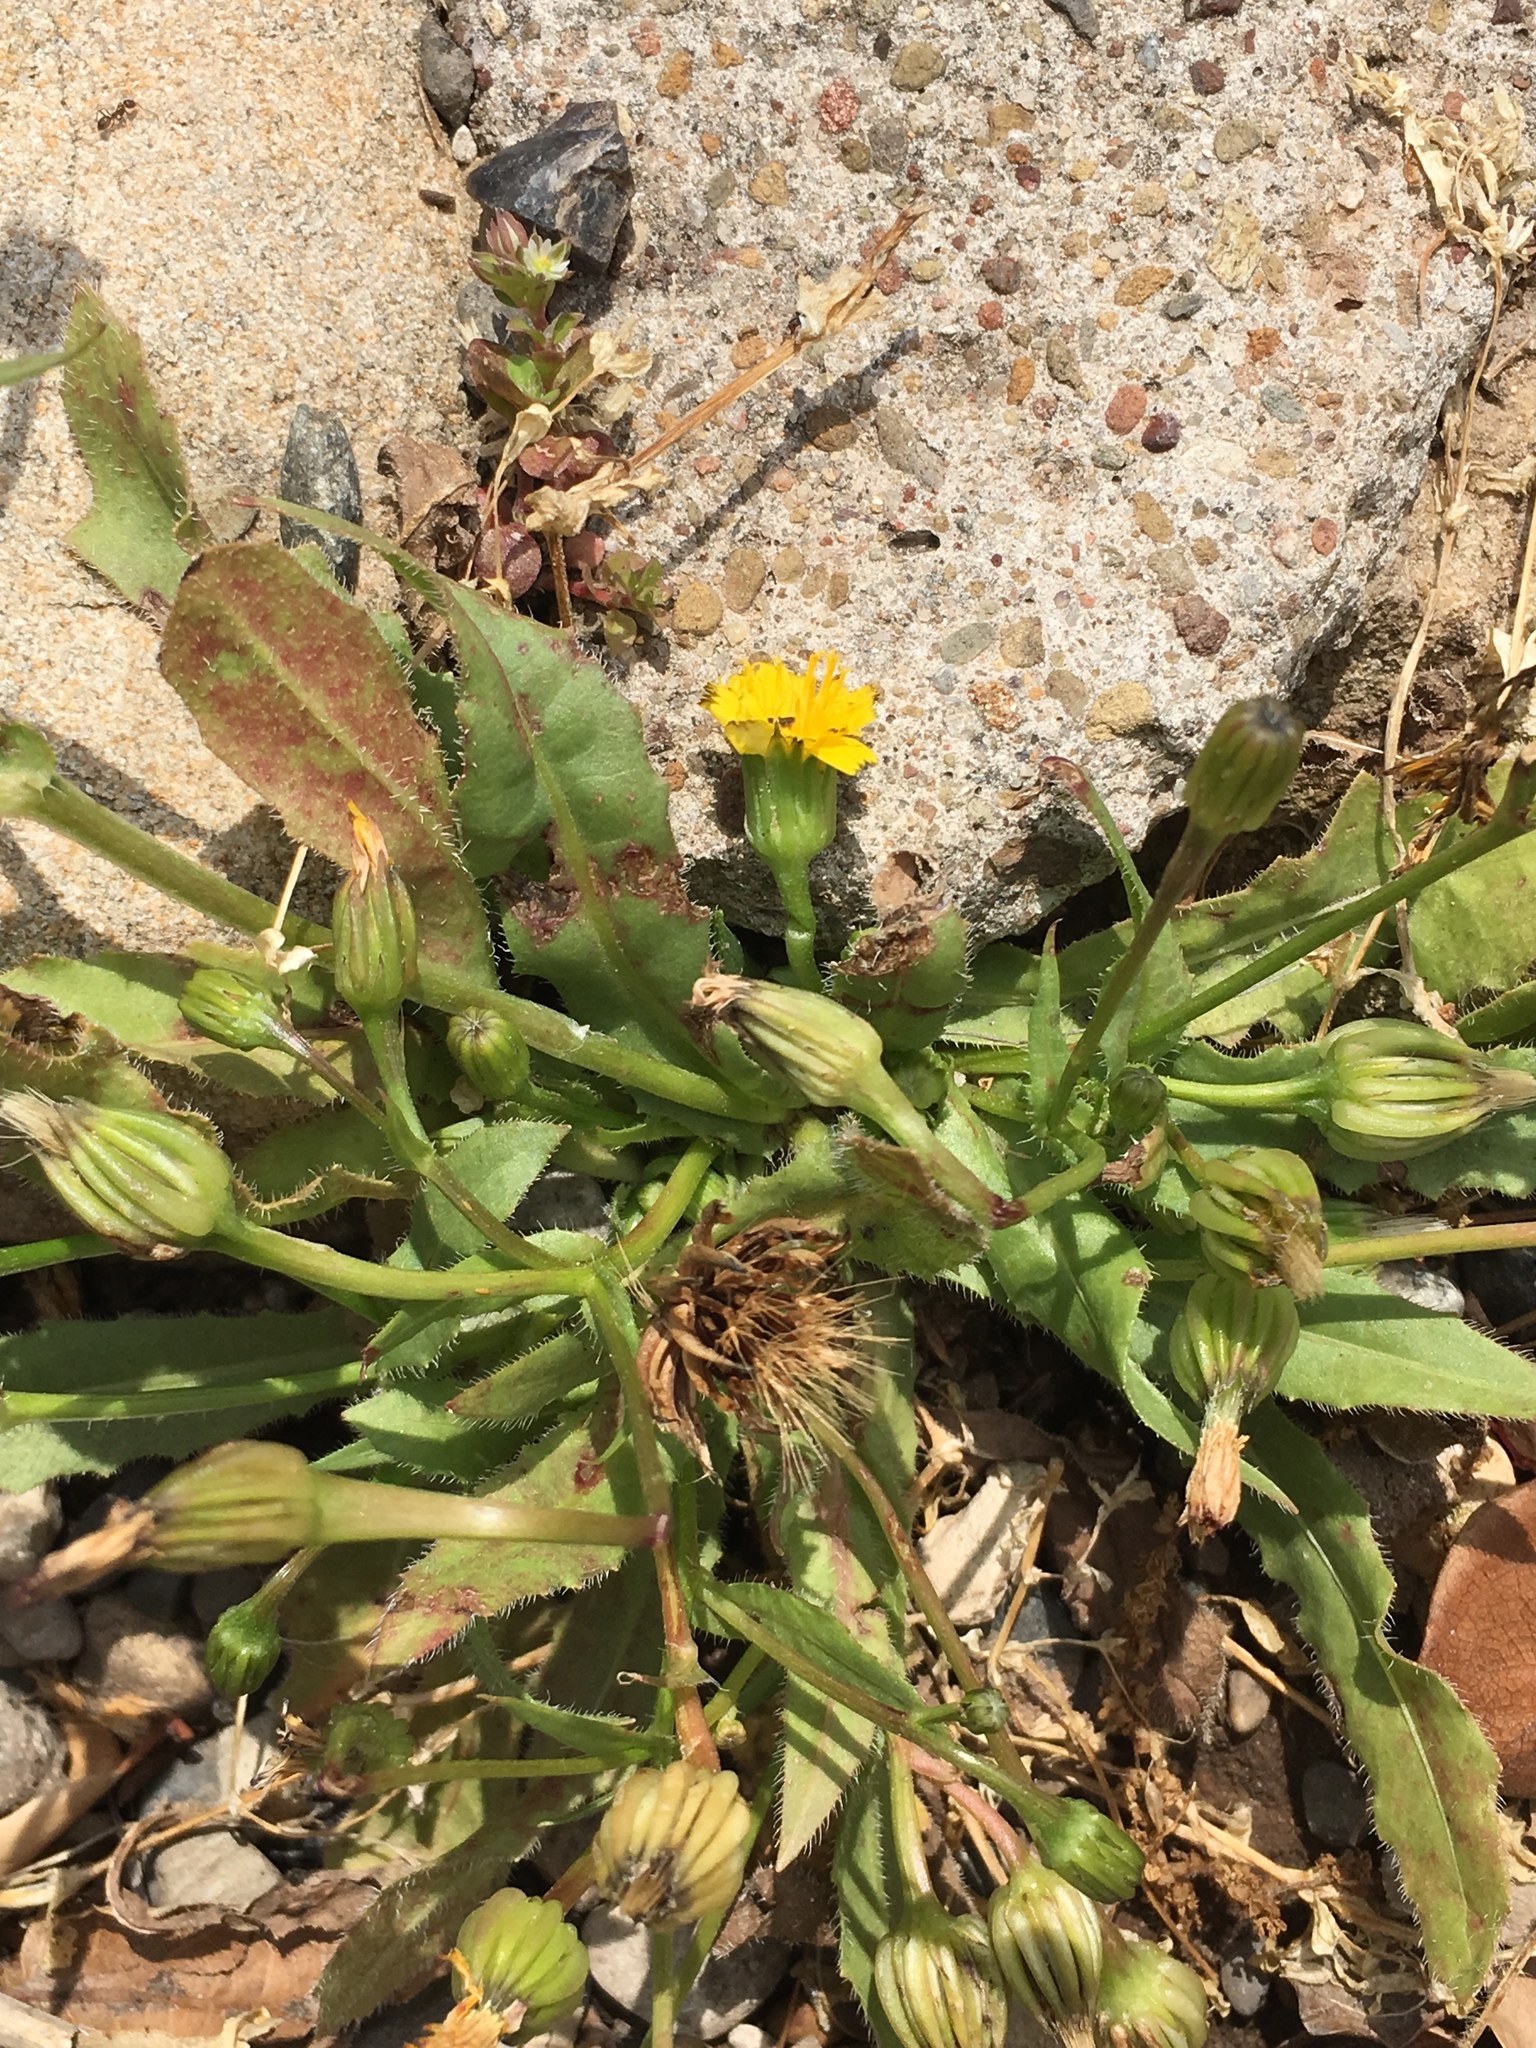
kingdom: Plantae
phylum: Tracheophyta
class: Magnoliopsida
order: Asterales
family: Asteraceae
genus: Hedypnois
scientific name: Hedypnois rhagadioloides
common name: Cretan weed
